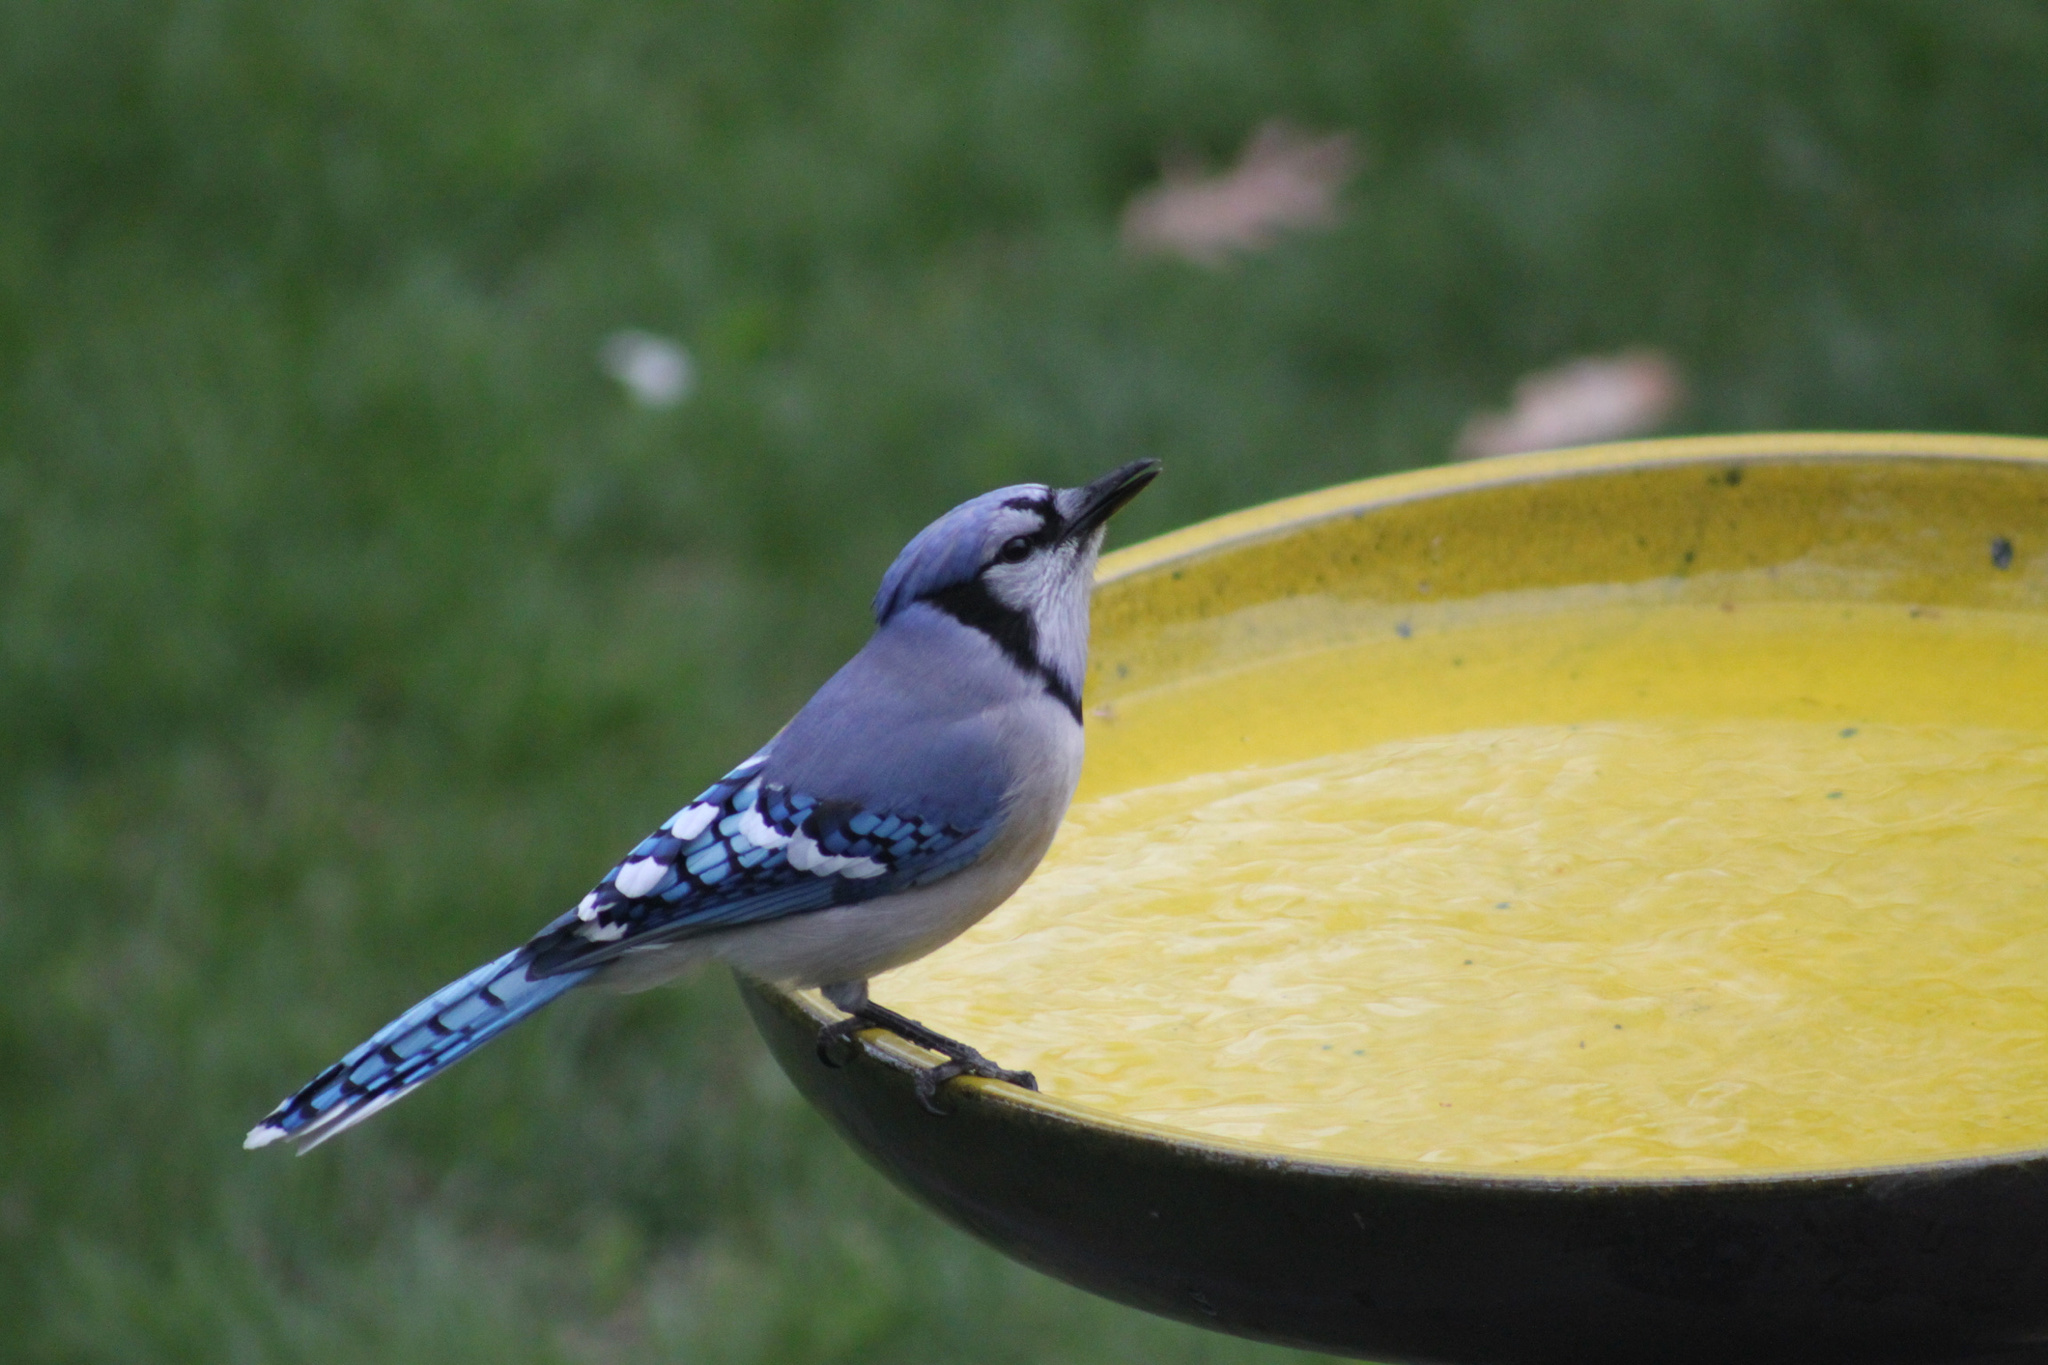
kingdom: Animalia
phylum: Chordata
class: Aves
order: Passeriformes
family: Corvidae
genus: Cyanocitta
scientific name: Cyanocitta cristata
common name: Blue jay
